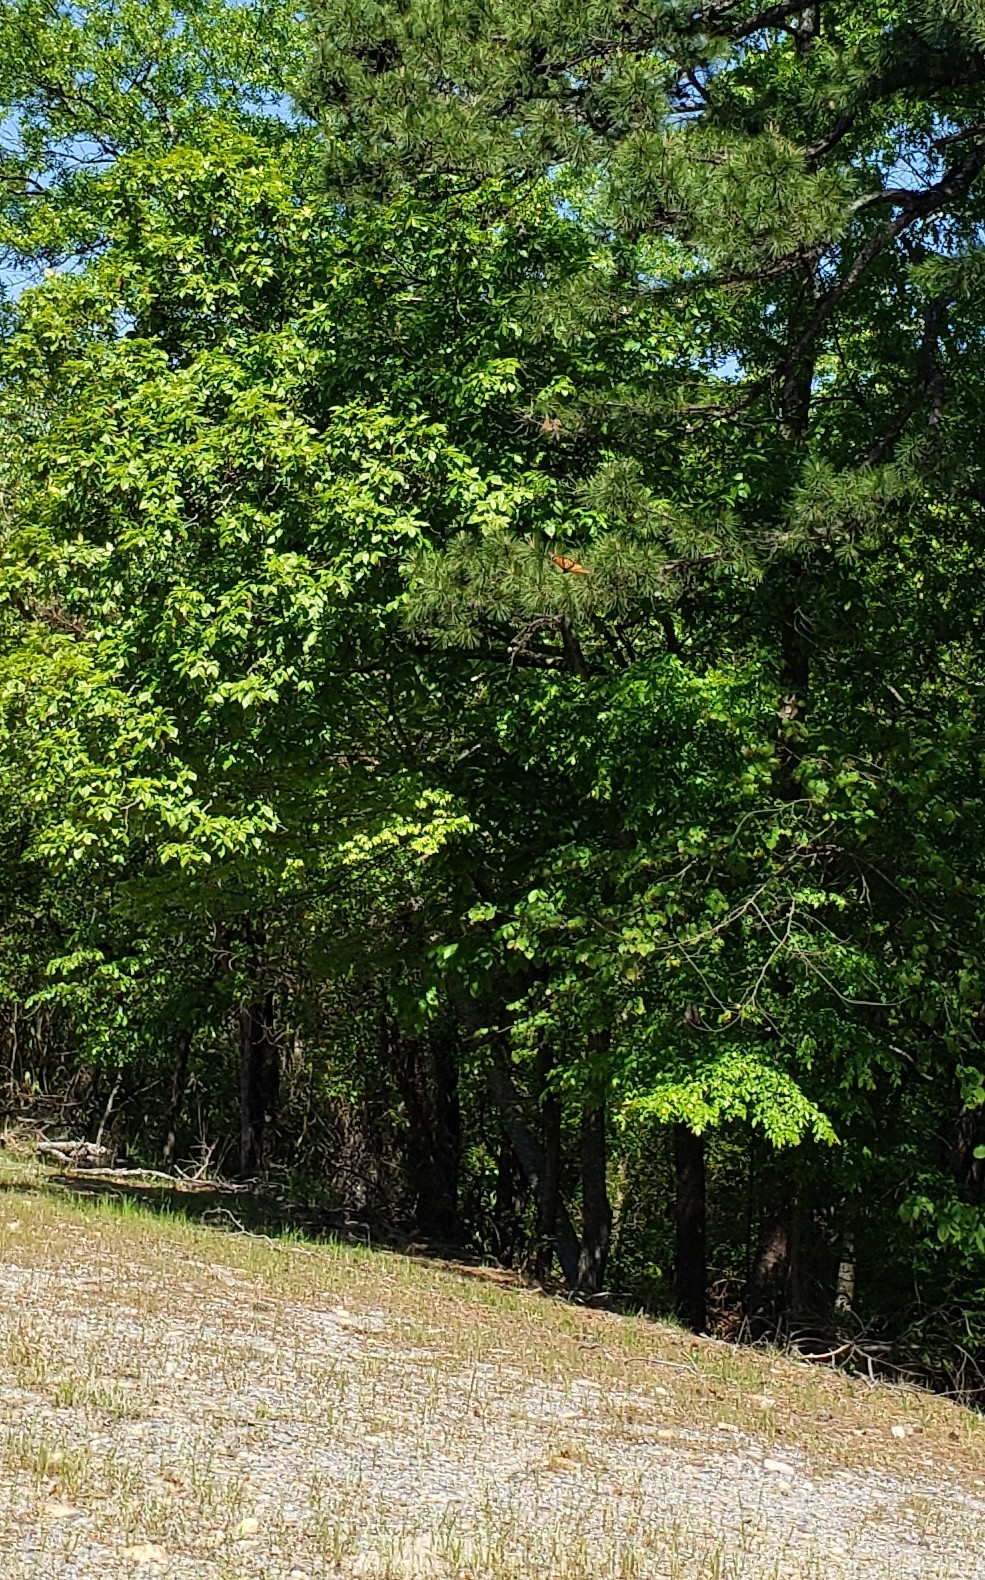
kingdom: Animalia
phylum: Arthropoda
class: Insecta
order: Lepidoptera
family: Nymphalidae
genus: Danaus
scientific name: Danaus plexippus
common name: Monarch
